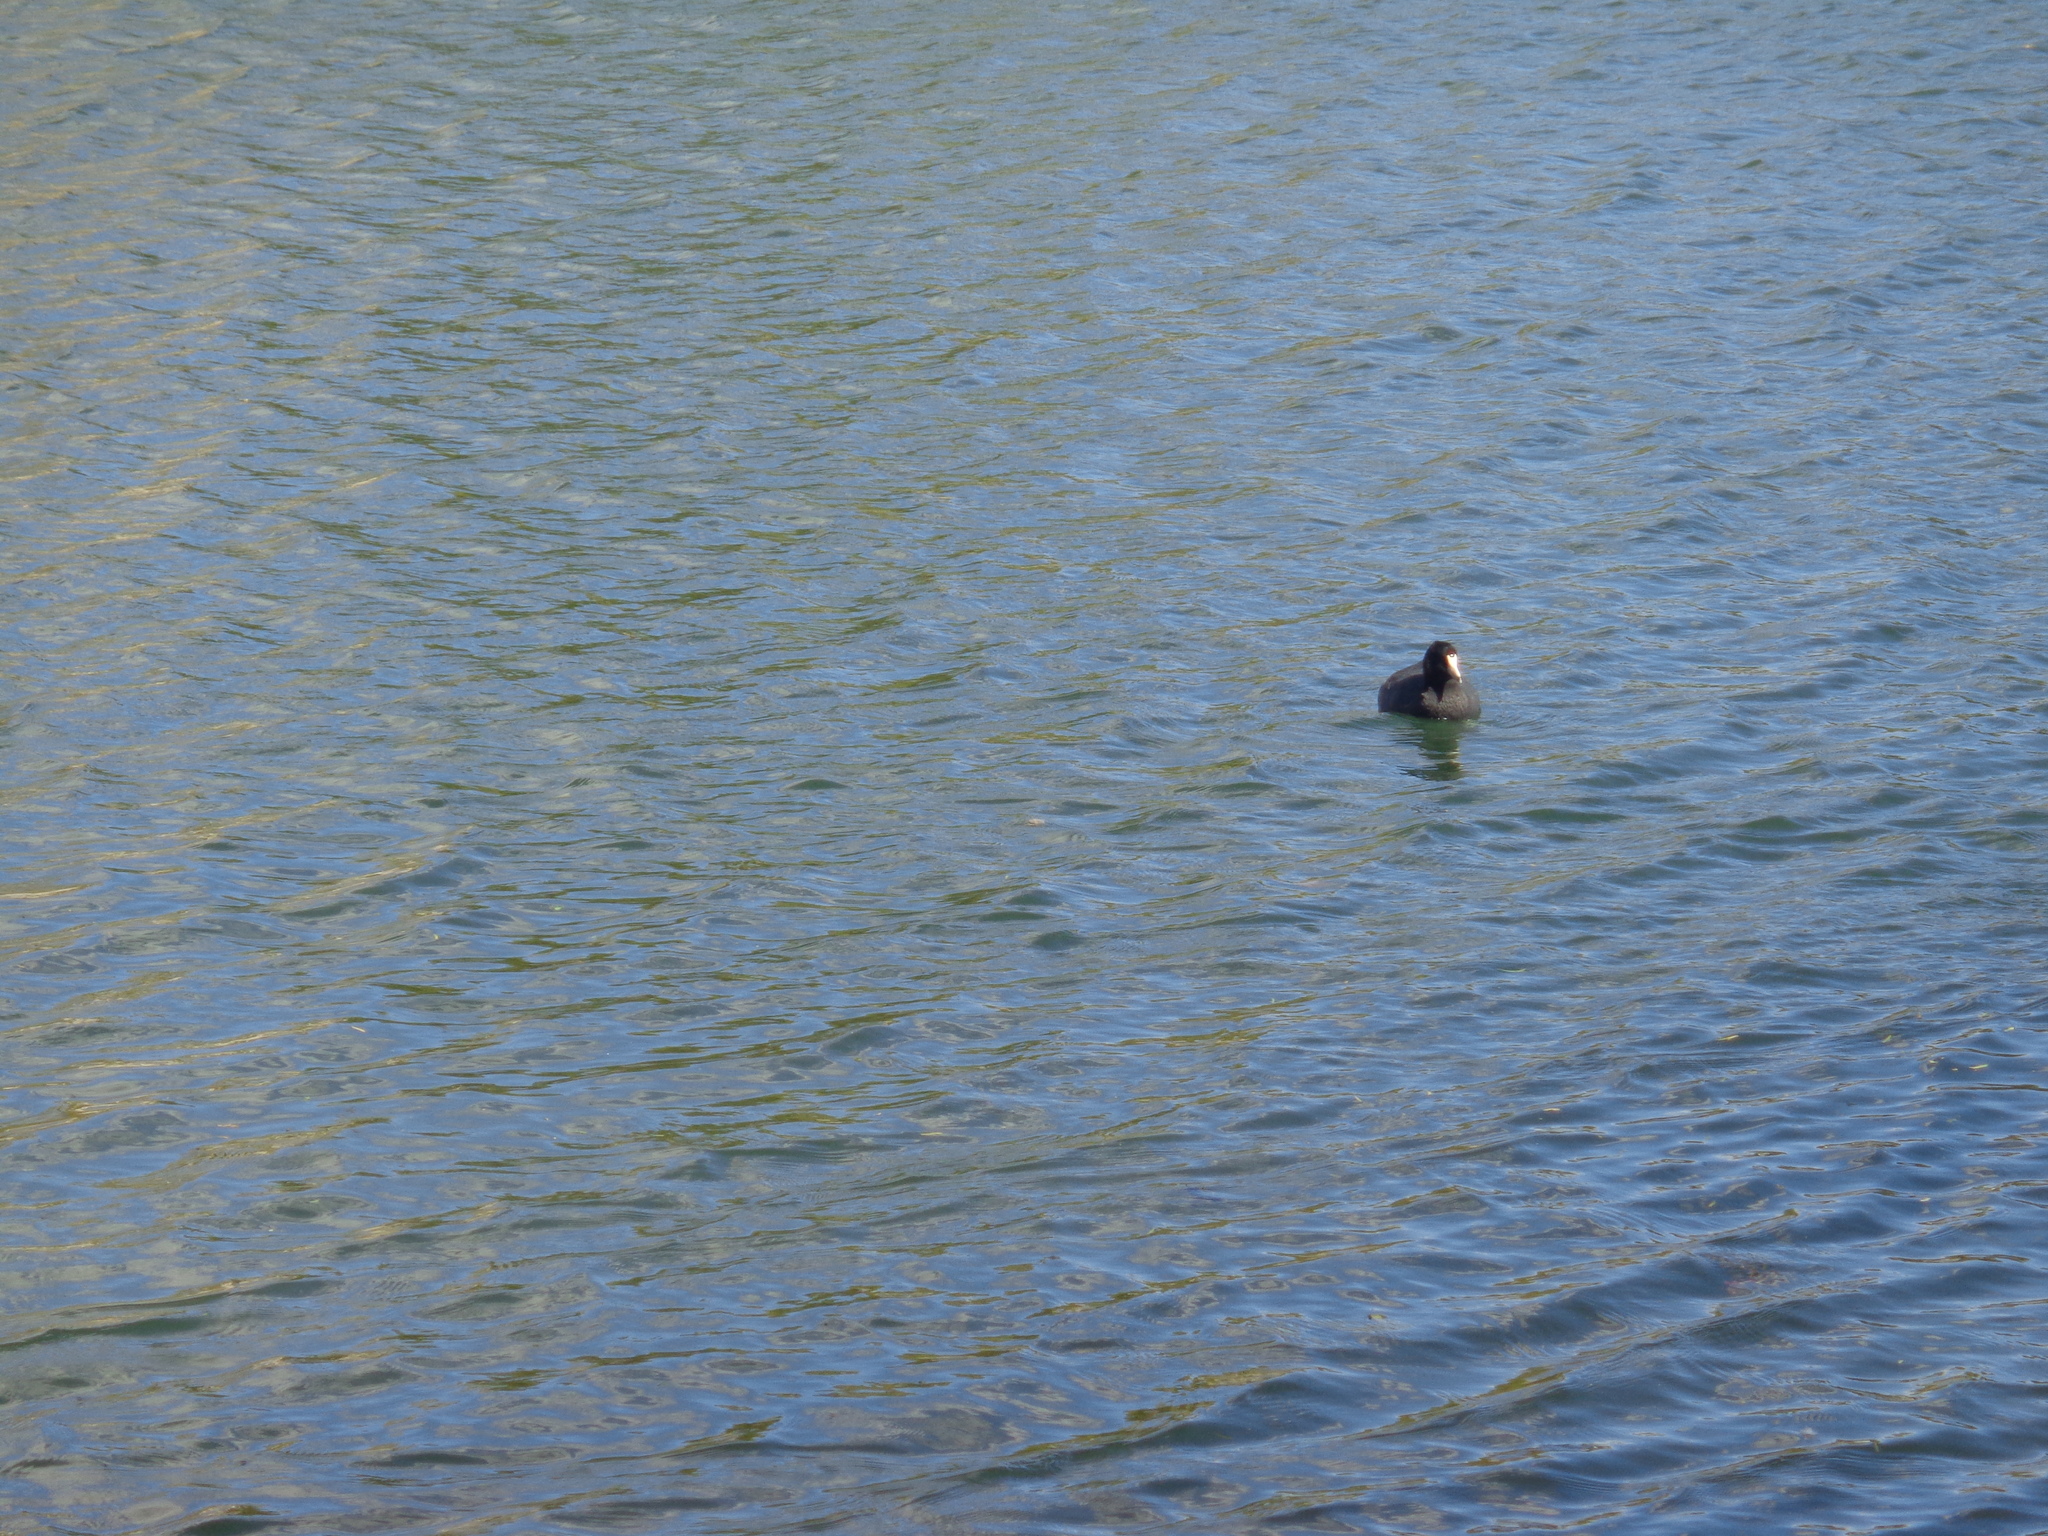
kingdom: Animalia
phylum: Chordata
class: Aves
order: Gruiformes
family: Rallidae
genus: Fulica
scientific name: Fulica americana
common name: American coot
